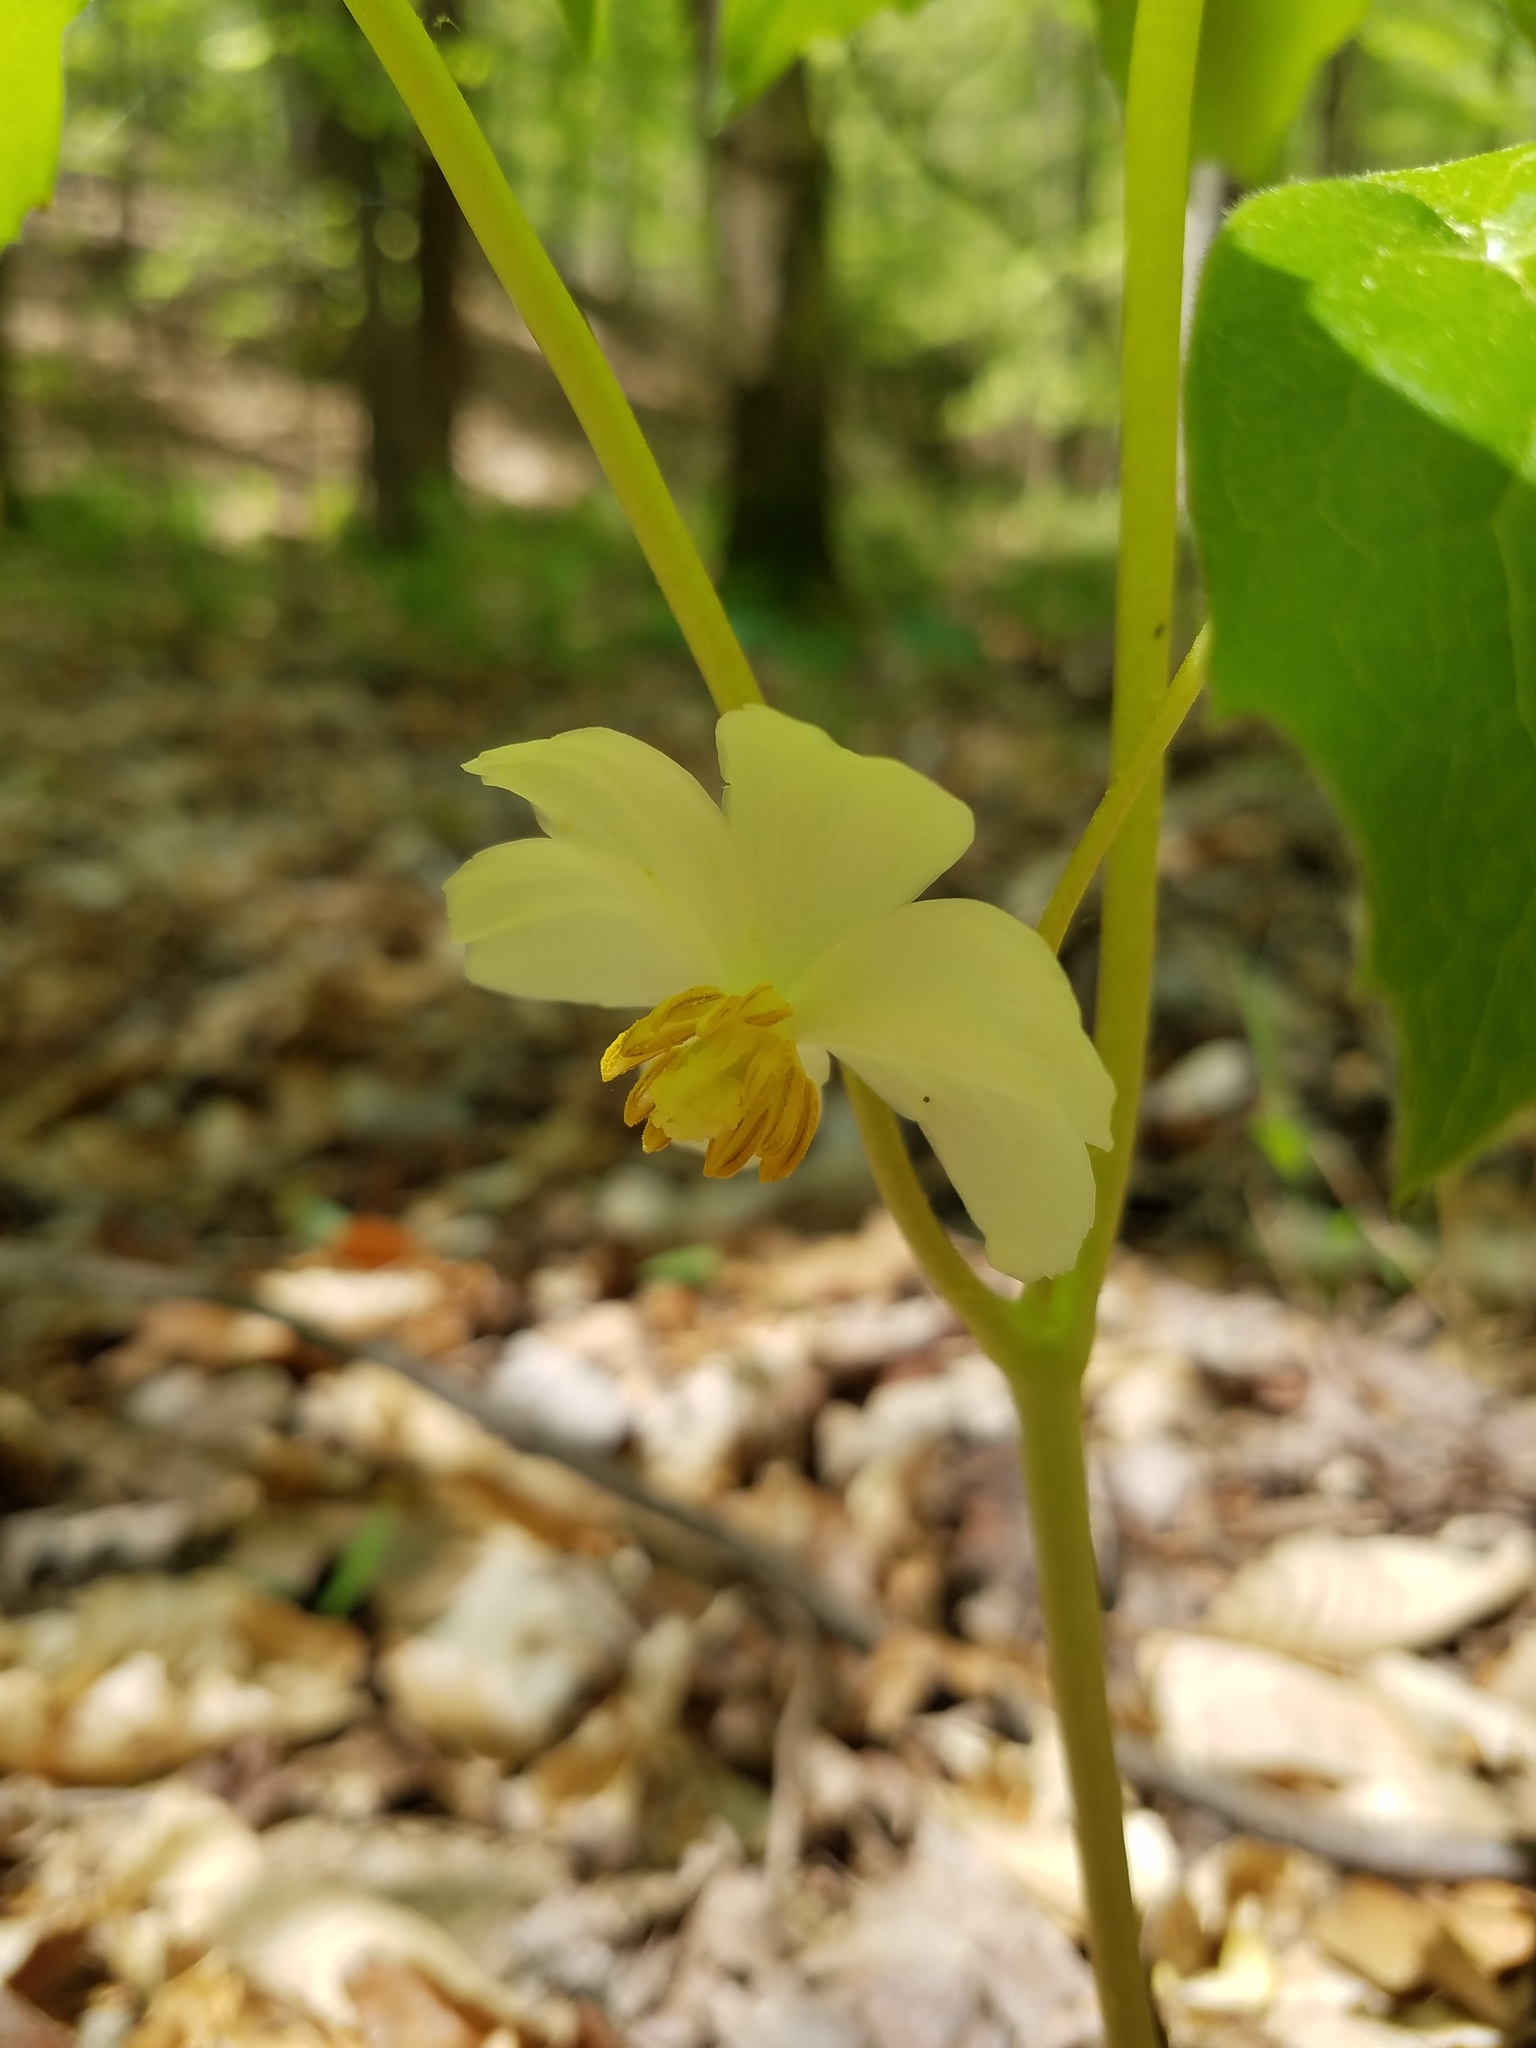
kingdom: Plantae
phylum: Tracheophyta
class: Magnoliopsida
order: Ranunculales
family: Berberidaceae
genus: Podophyllum
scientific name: Podophyllum peltatum
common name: Wild mandrake
